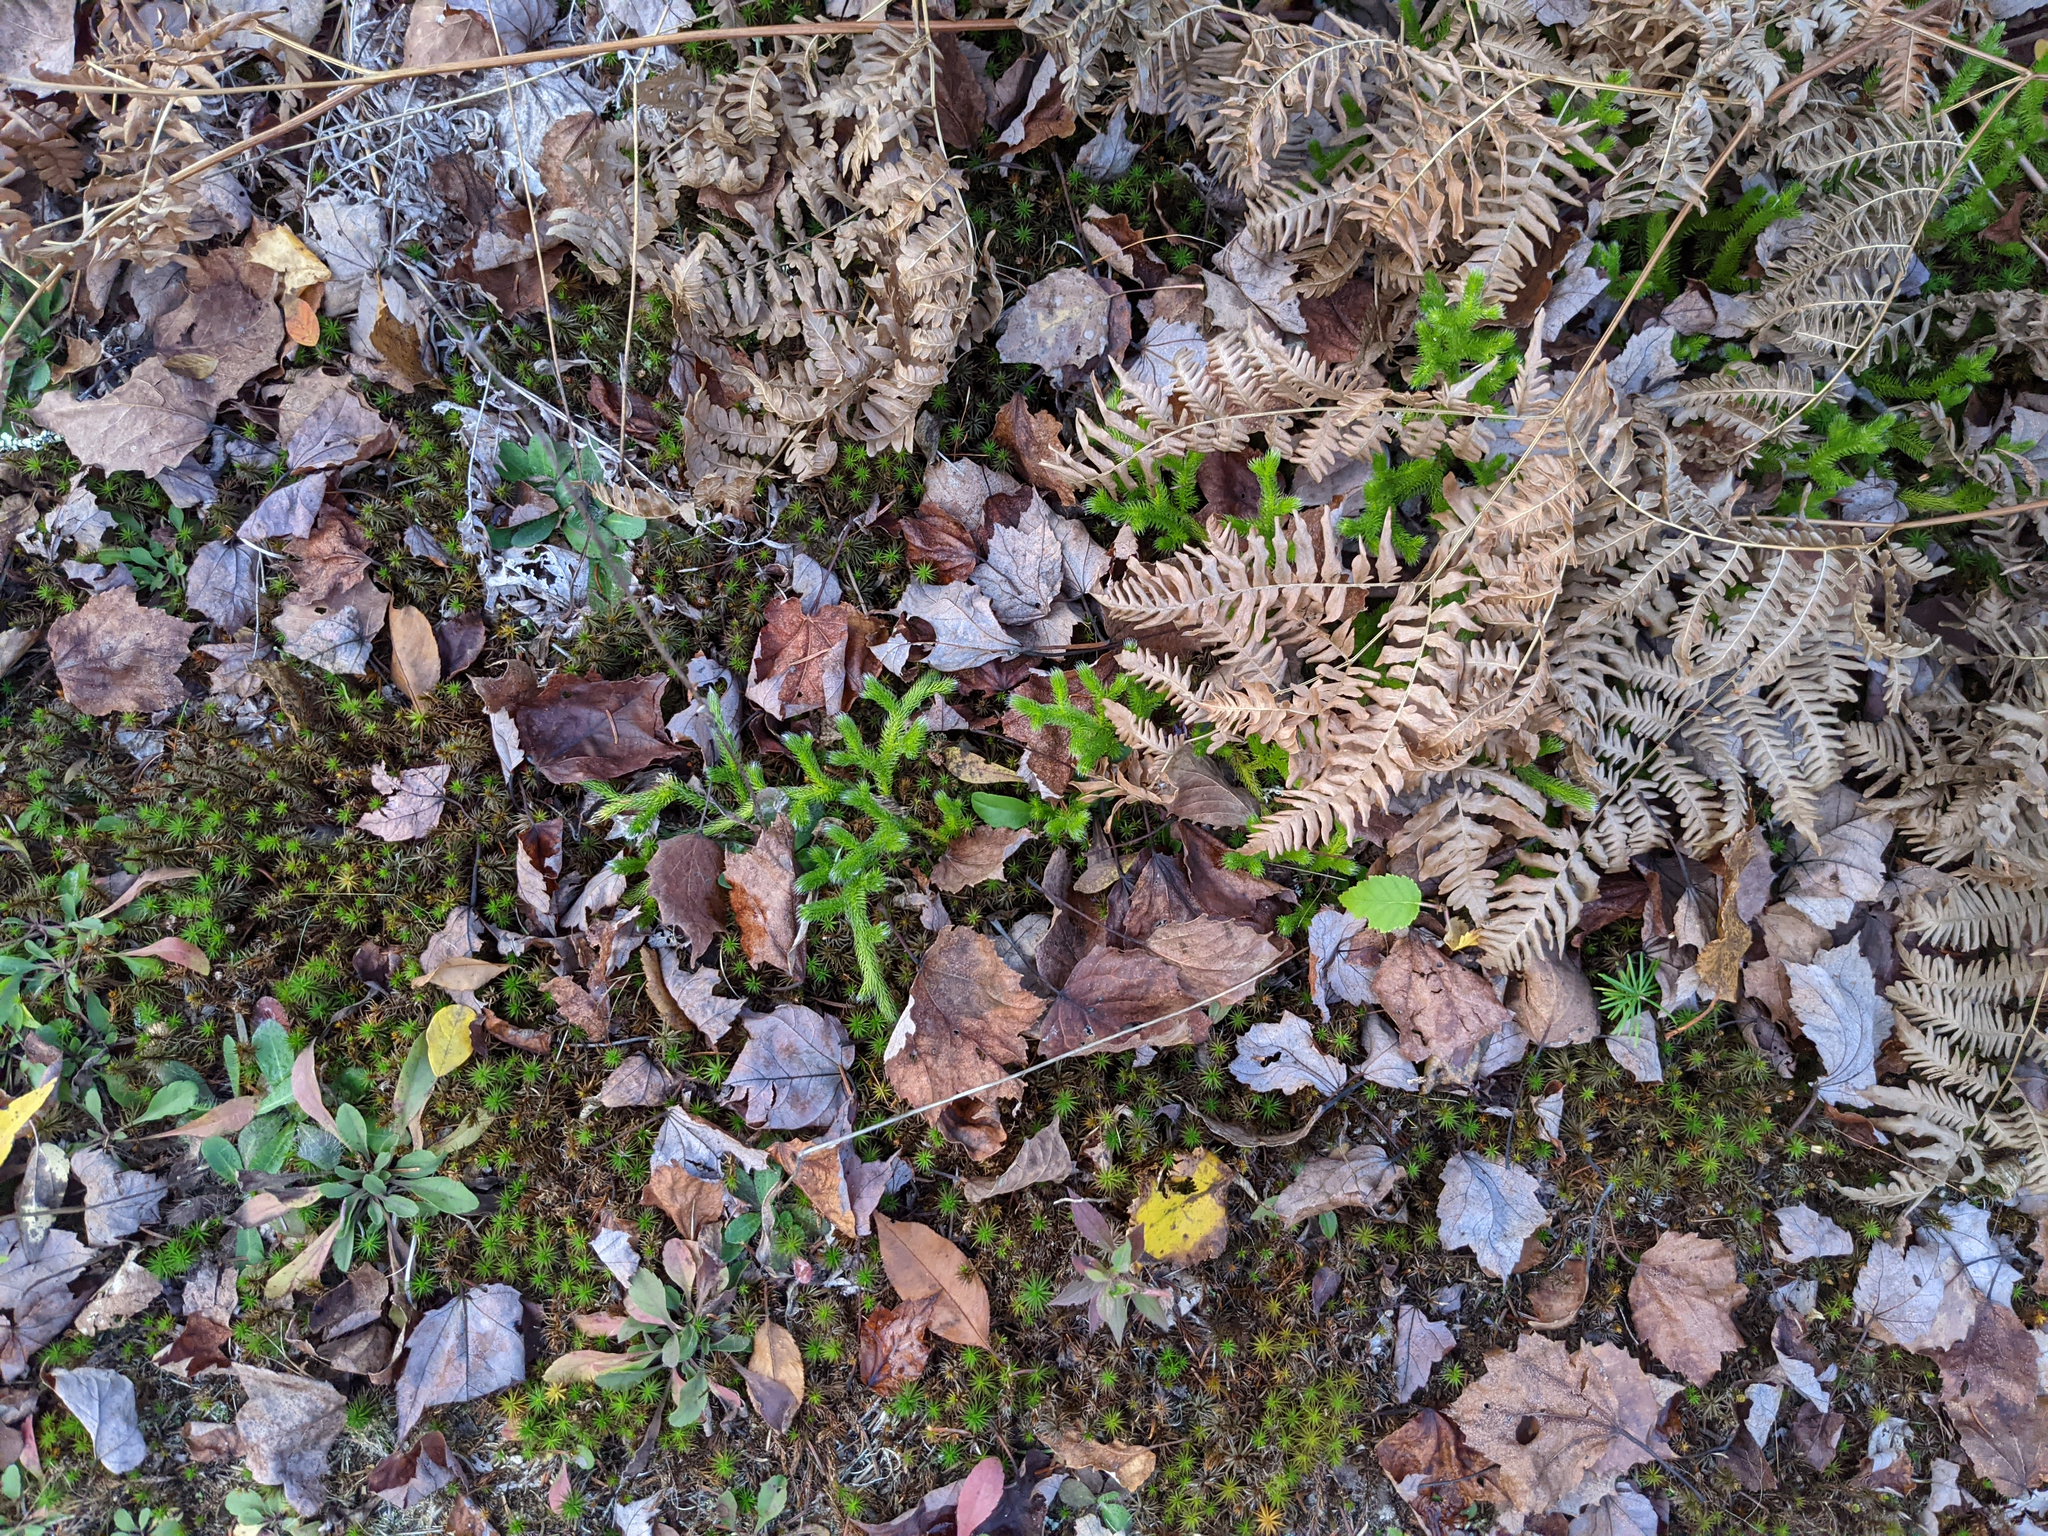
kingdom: Plantae
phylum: Tracheophyta
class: Lycopodiopsida
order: Lycopodiales
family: Lycopodiaceae
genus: Lycopodium
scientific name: Lycopodium clavatum
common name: Stag's-horn clubmoss
